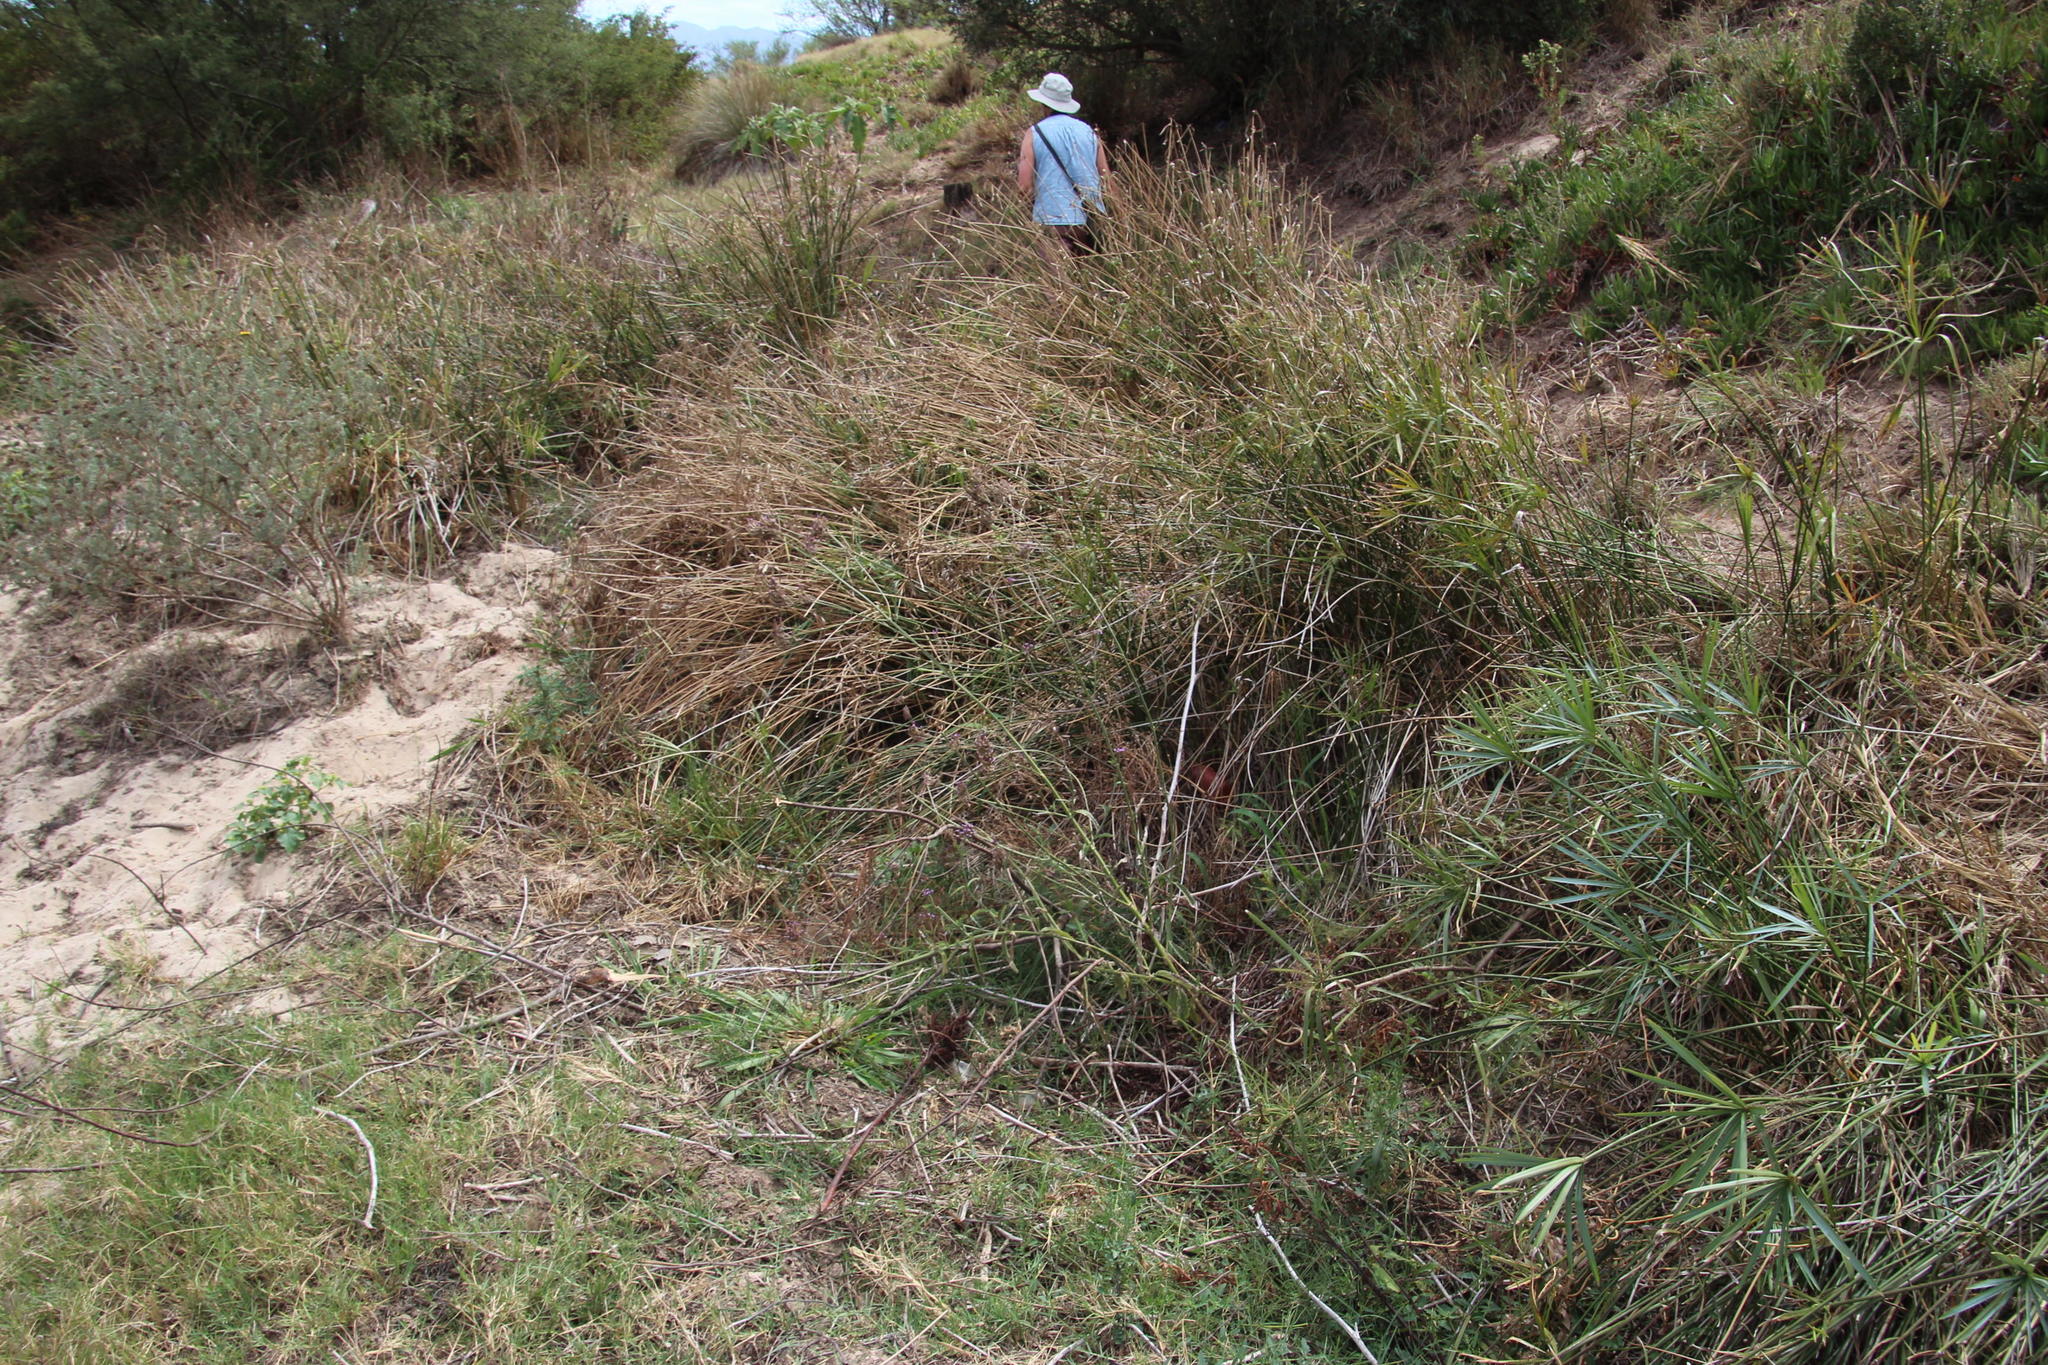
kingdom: Plantae
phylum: Tracheophyta
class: Magnoliopsida
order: Lamiales
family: Verbenaceae
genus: Verbena
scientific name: Verbena bonariensis
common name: Purpletop vervain
